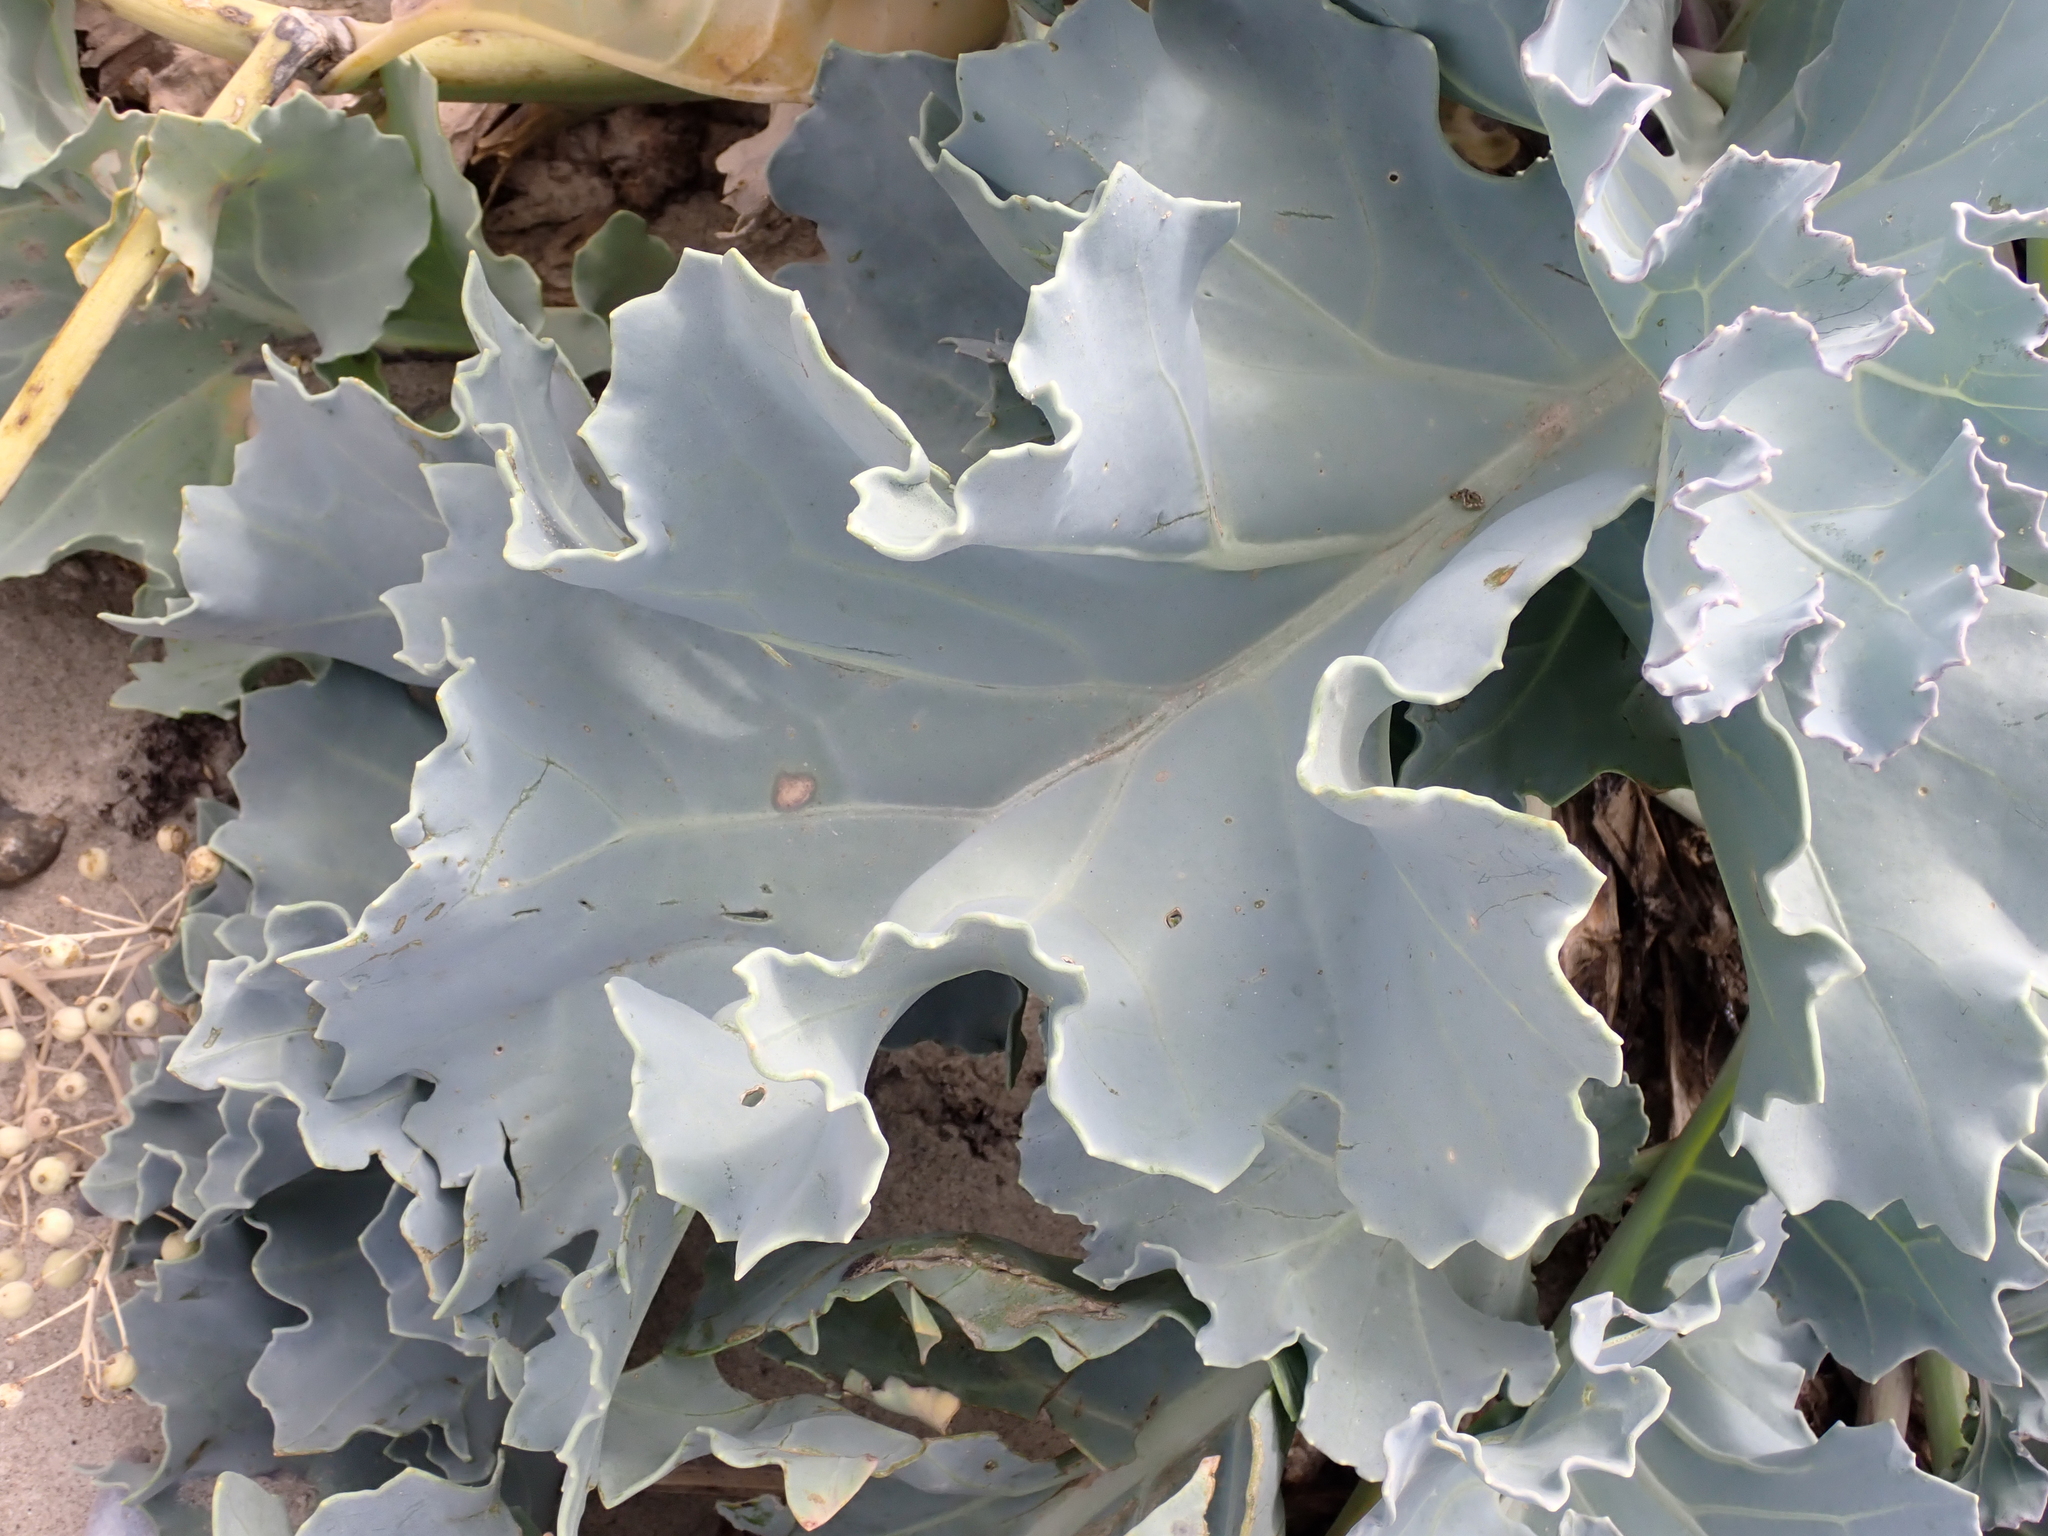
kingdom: Plantae
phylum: Tracheophyta
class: Magnoliopsida
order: Brassicales
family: Brassicaceae
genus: Crambe
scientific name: Crambe maritima
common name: Sea-kale
